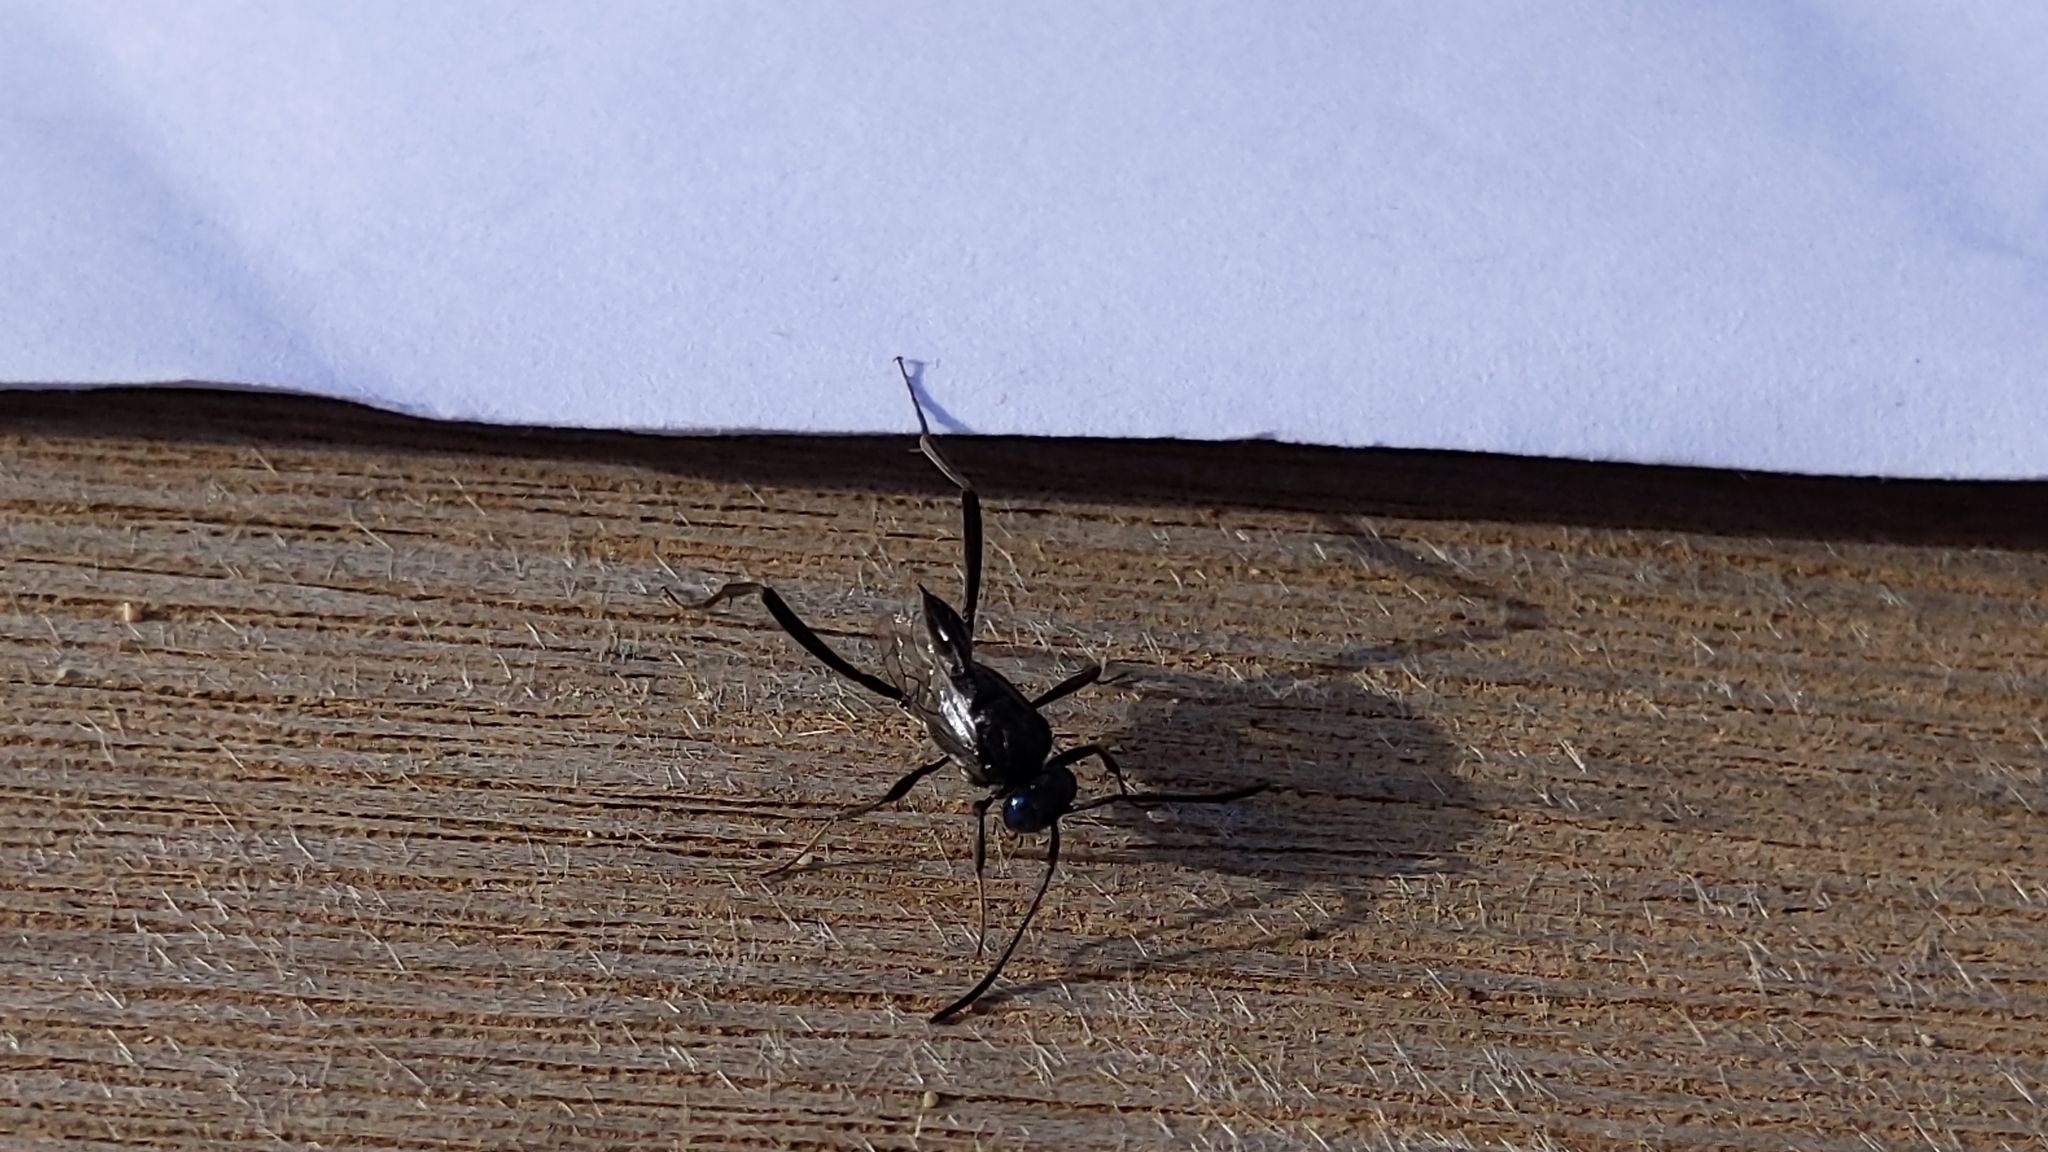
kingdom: Animalia
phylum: Arthropoda
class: Insecta
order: Hymenoptera
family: Evaniidae
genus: Evania
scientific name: Evania appendigaster
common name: Ensign wasp
